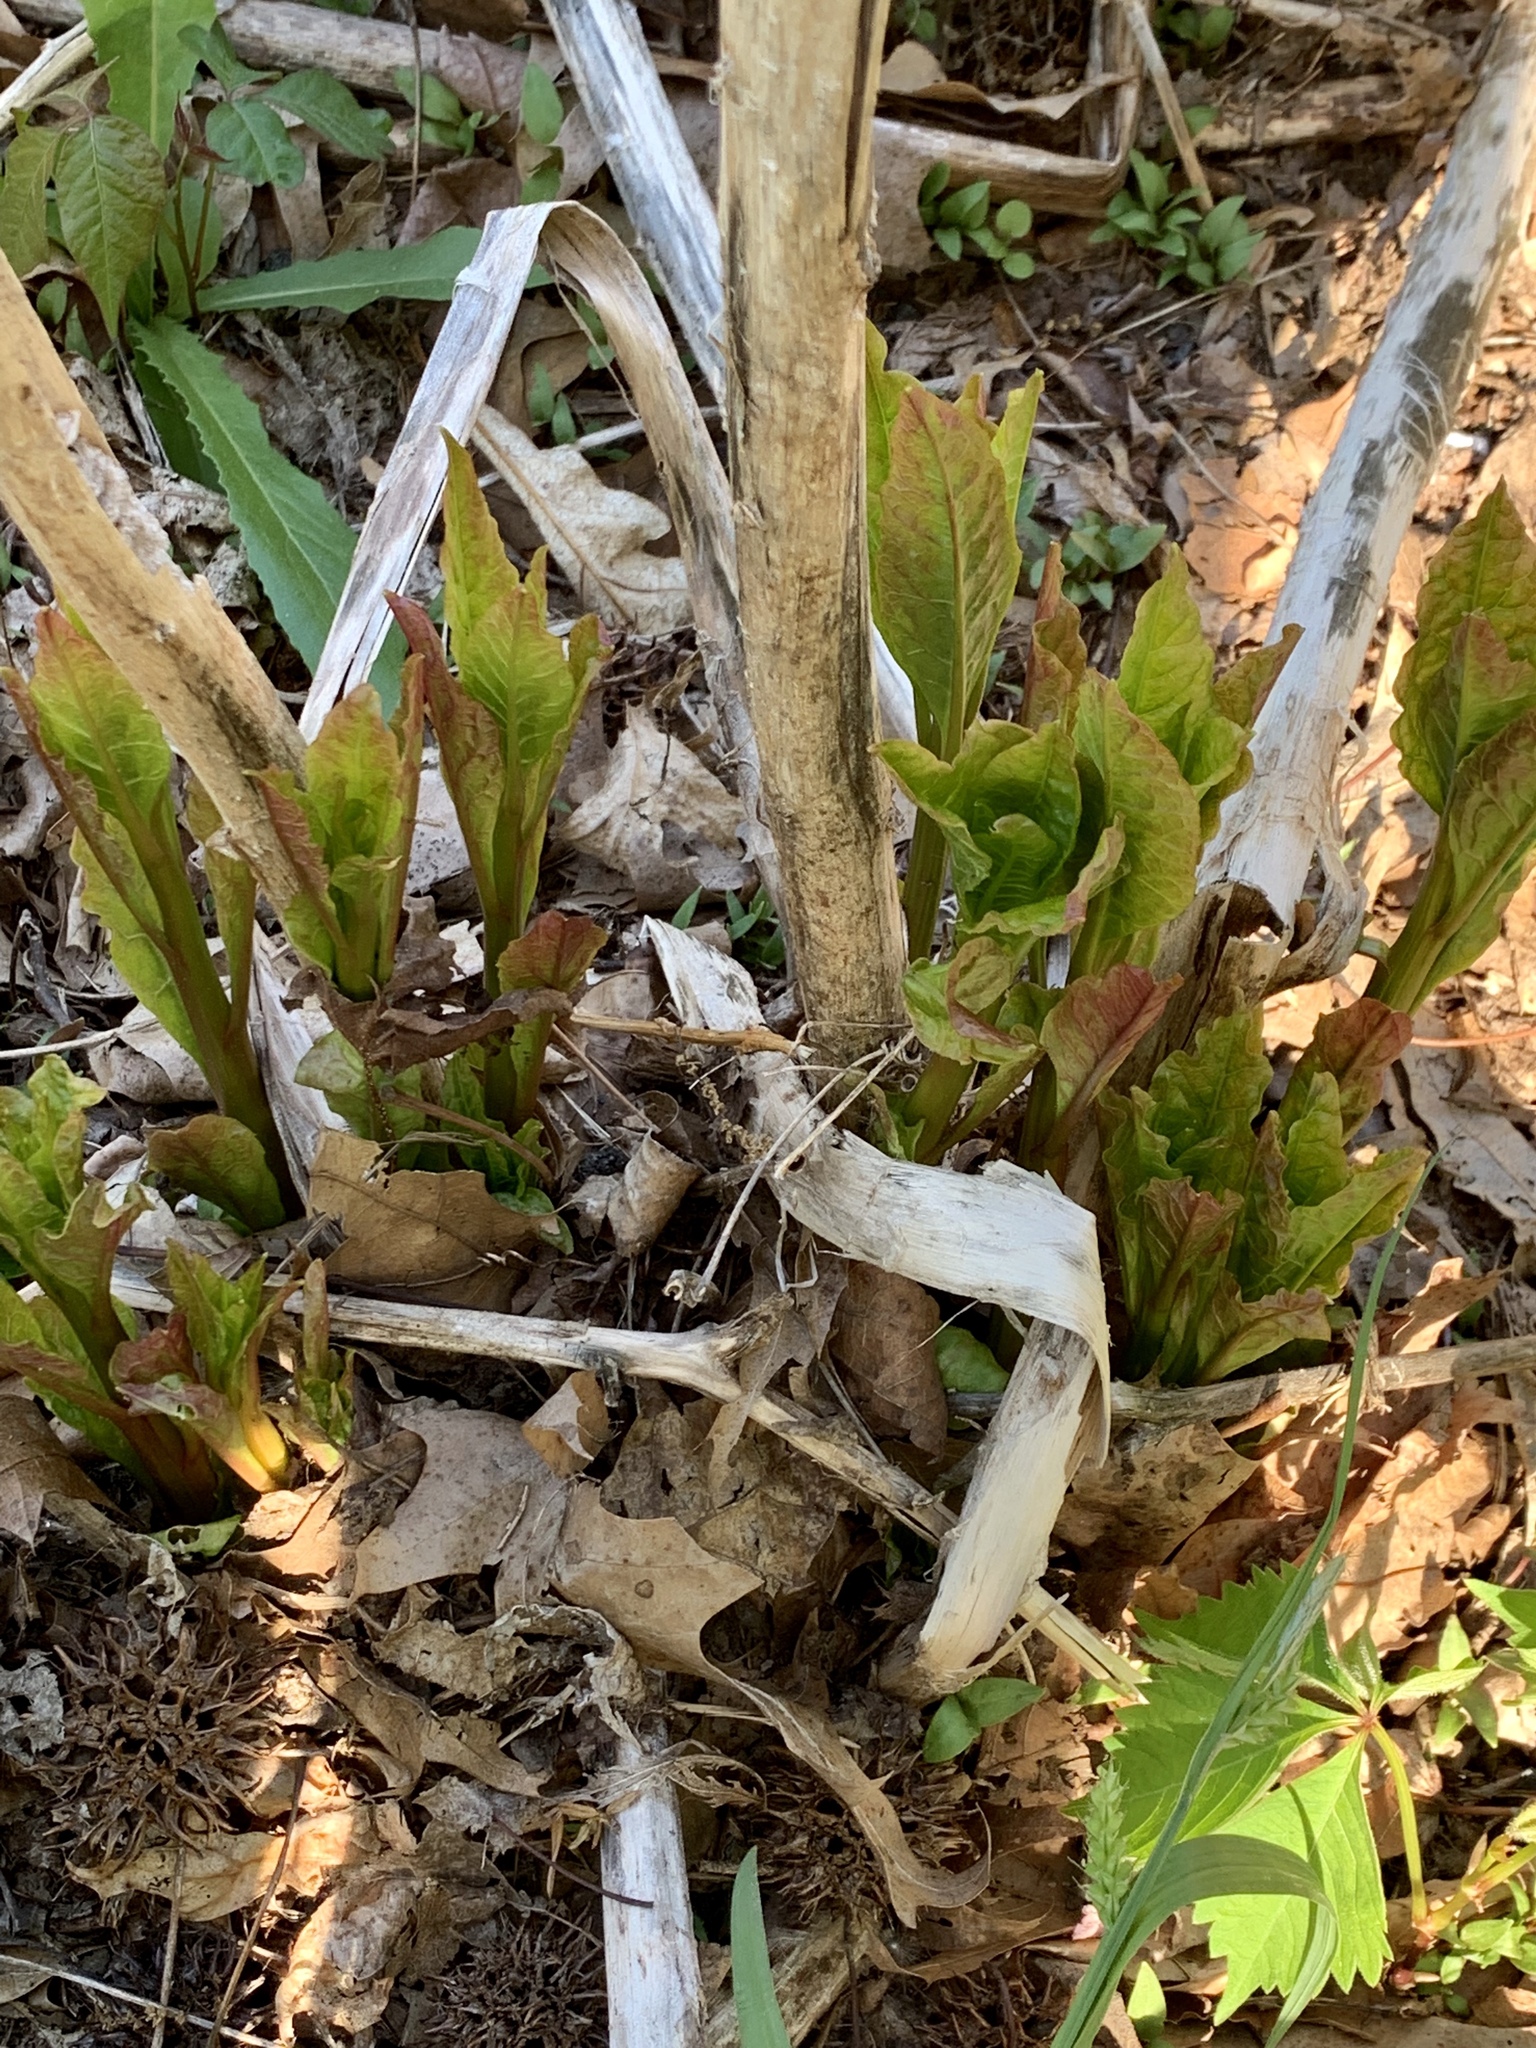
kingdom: Plantae
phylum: Tracheophyta
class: Magnoliopsida
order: Caryophyllales
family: Phytolaccaceae
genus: Phytolacca
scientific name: Phytolacca americana
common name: American pokeweed
